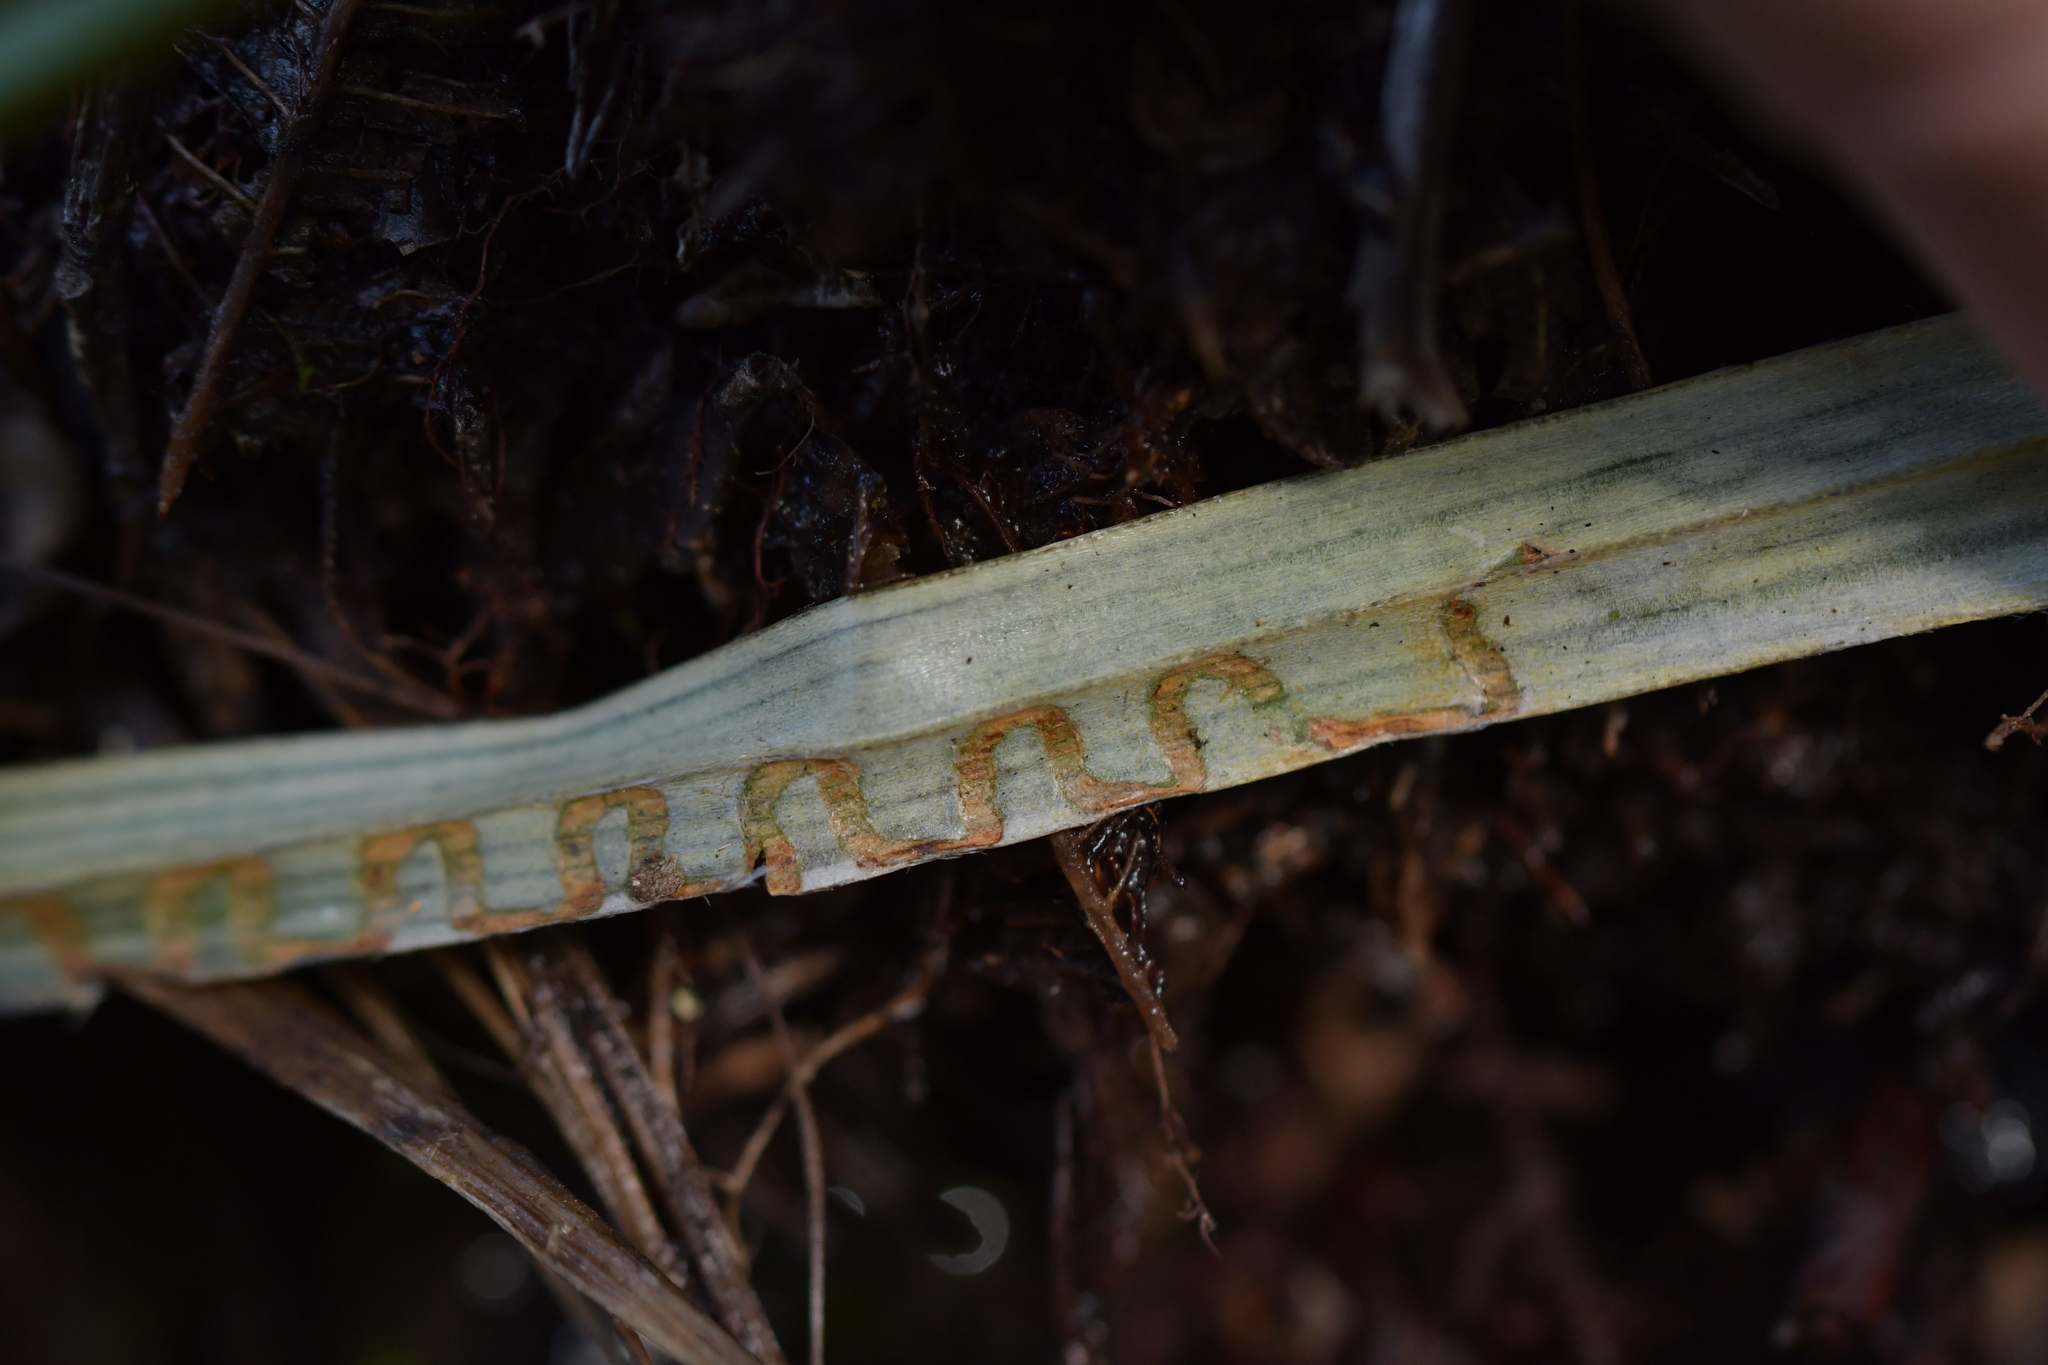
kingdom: Animalia
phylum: Arthropoda
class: Insecta
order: Lepidoptera
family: Plutellidae
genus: Charixena
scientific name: Charixena iridoxa
